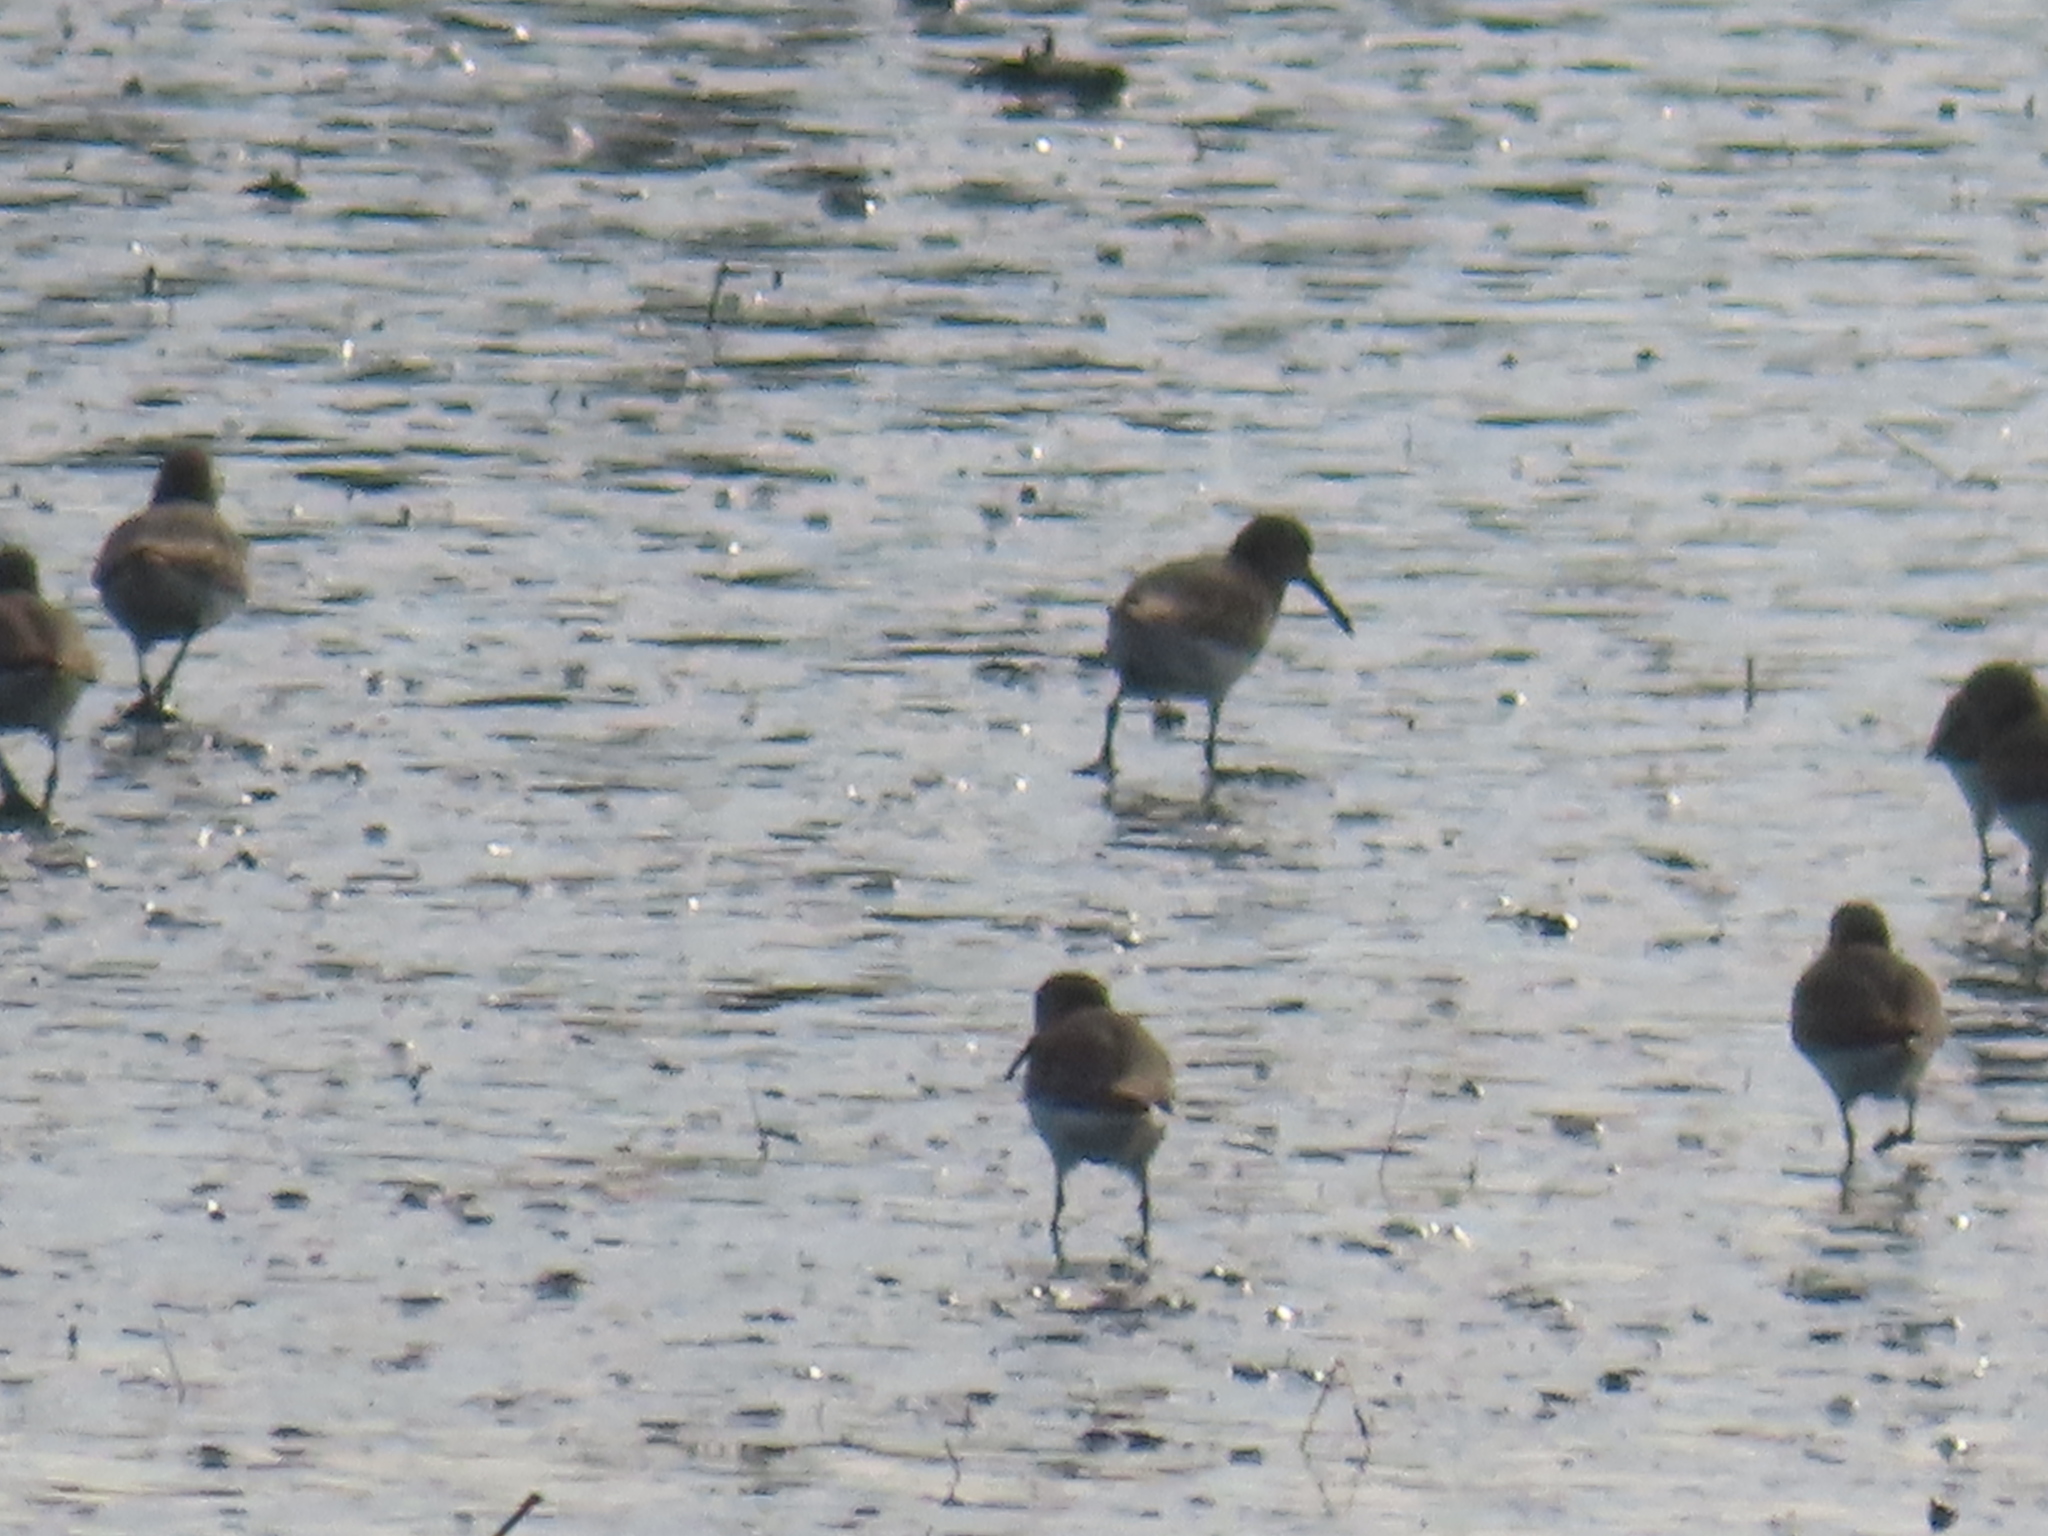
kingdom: Animalia
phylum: Chordata
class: Aves
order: Charadriiformes
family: Scolopacidae
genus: Calidris
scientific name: Calidris alpina
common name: Dunlin
